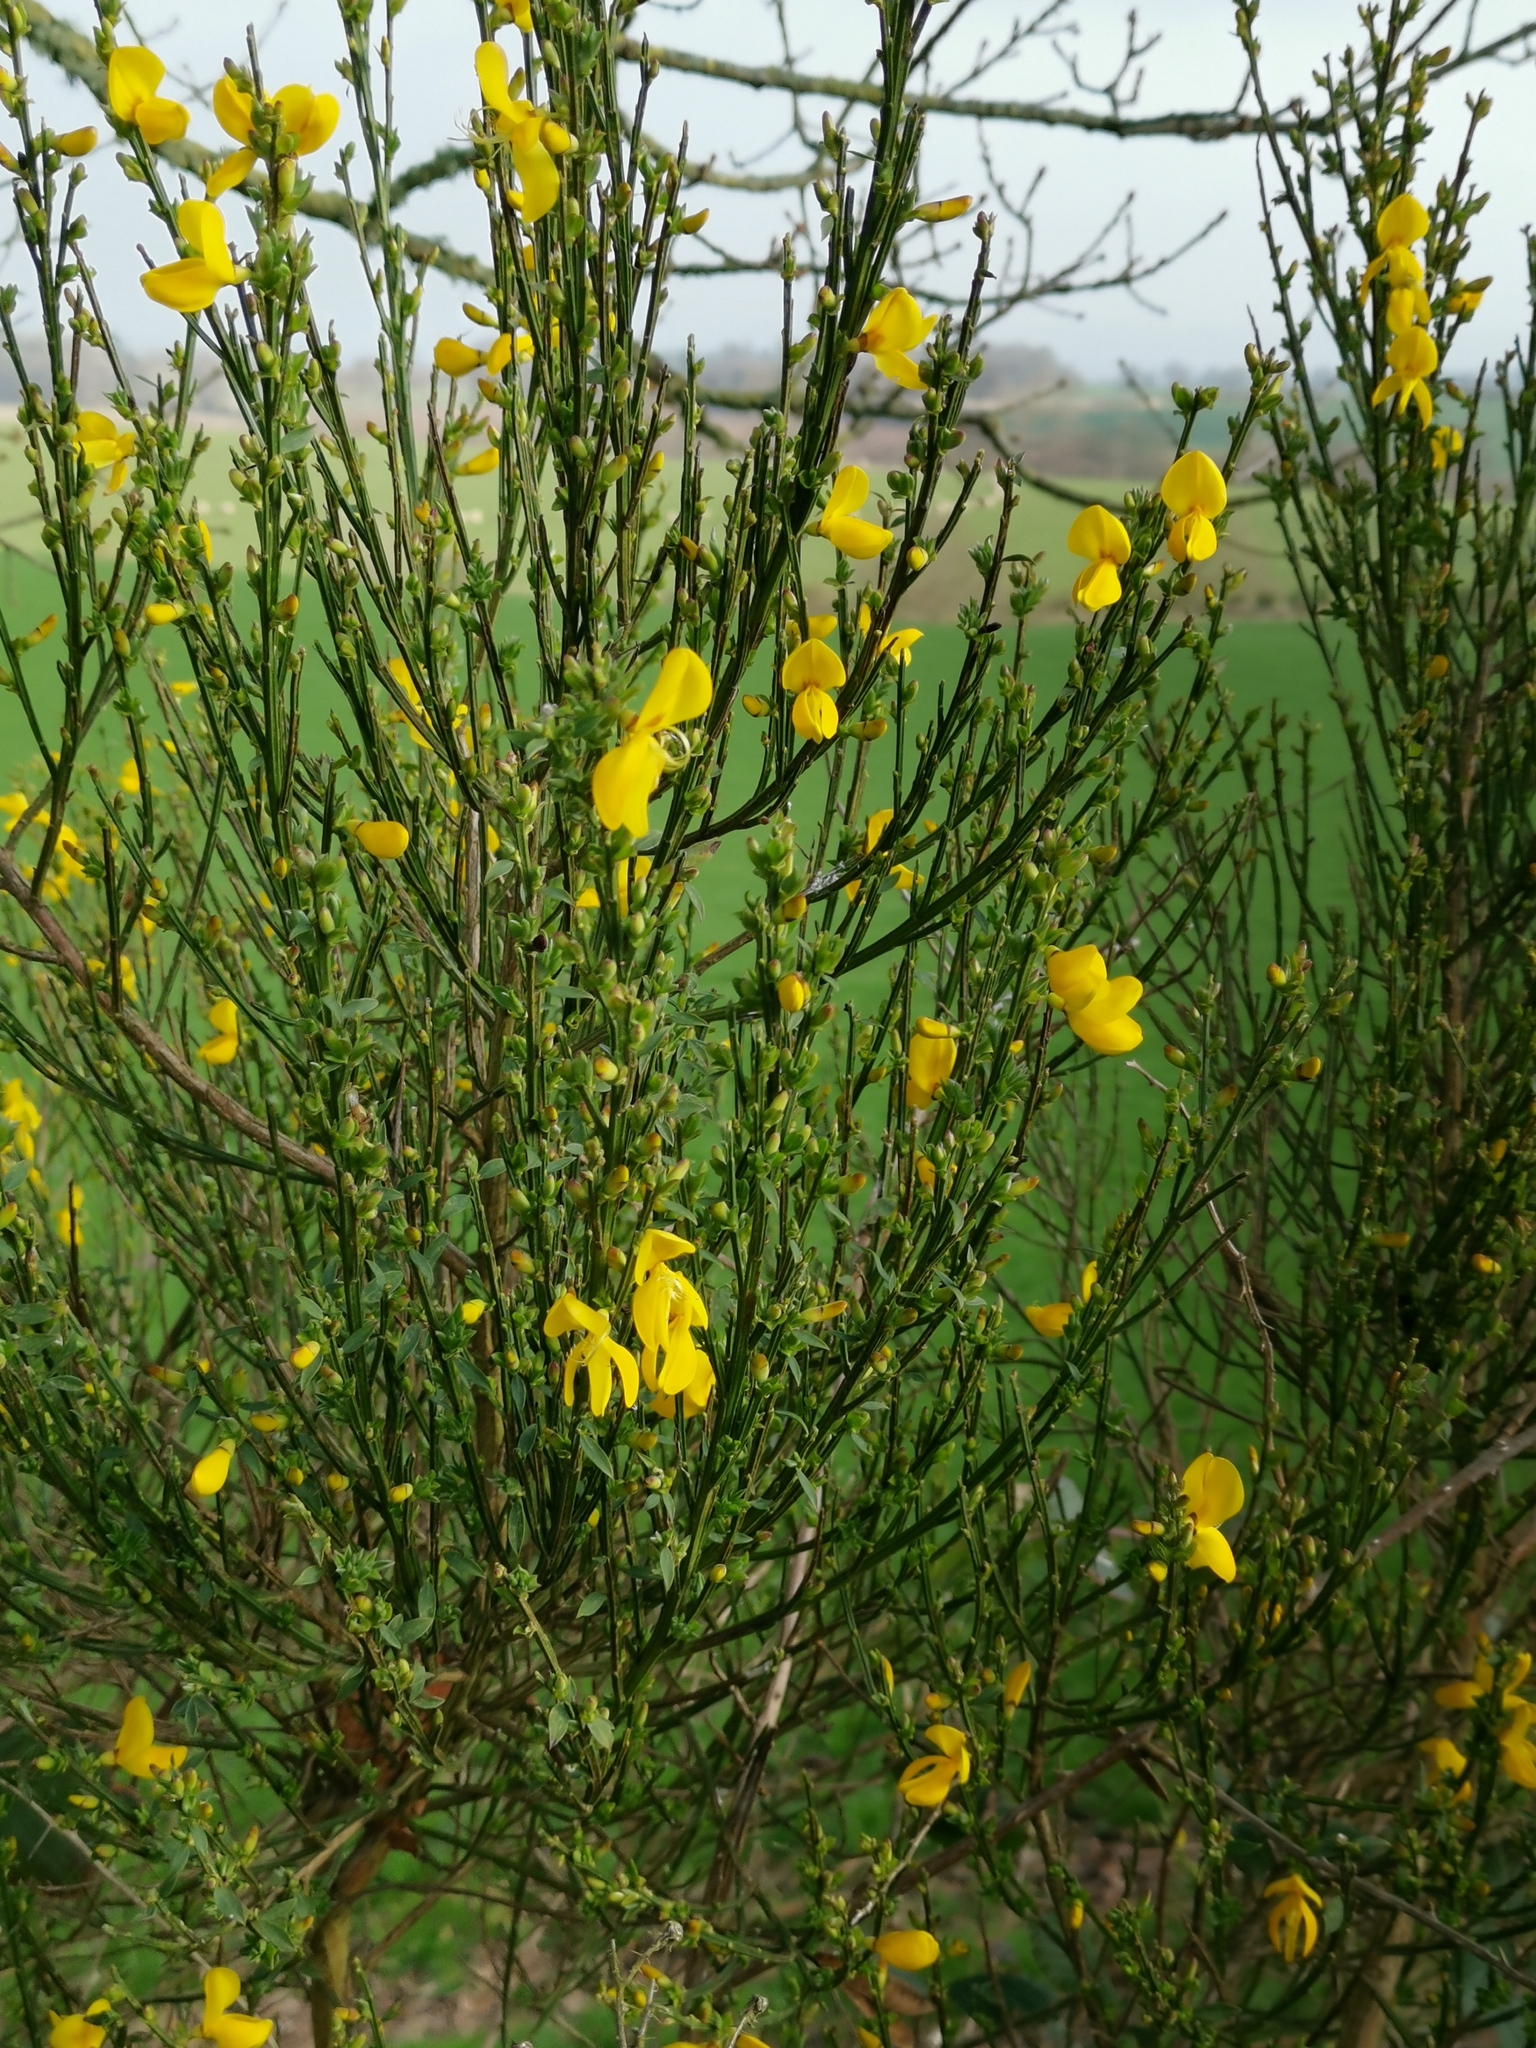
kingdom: Plantae
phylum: Tracheophyta
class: Magnoliopsida
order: Fabales
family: Fabaceae
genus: Cytisus
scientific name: Cytisus scoparius
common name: Scotch broom
